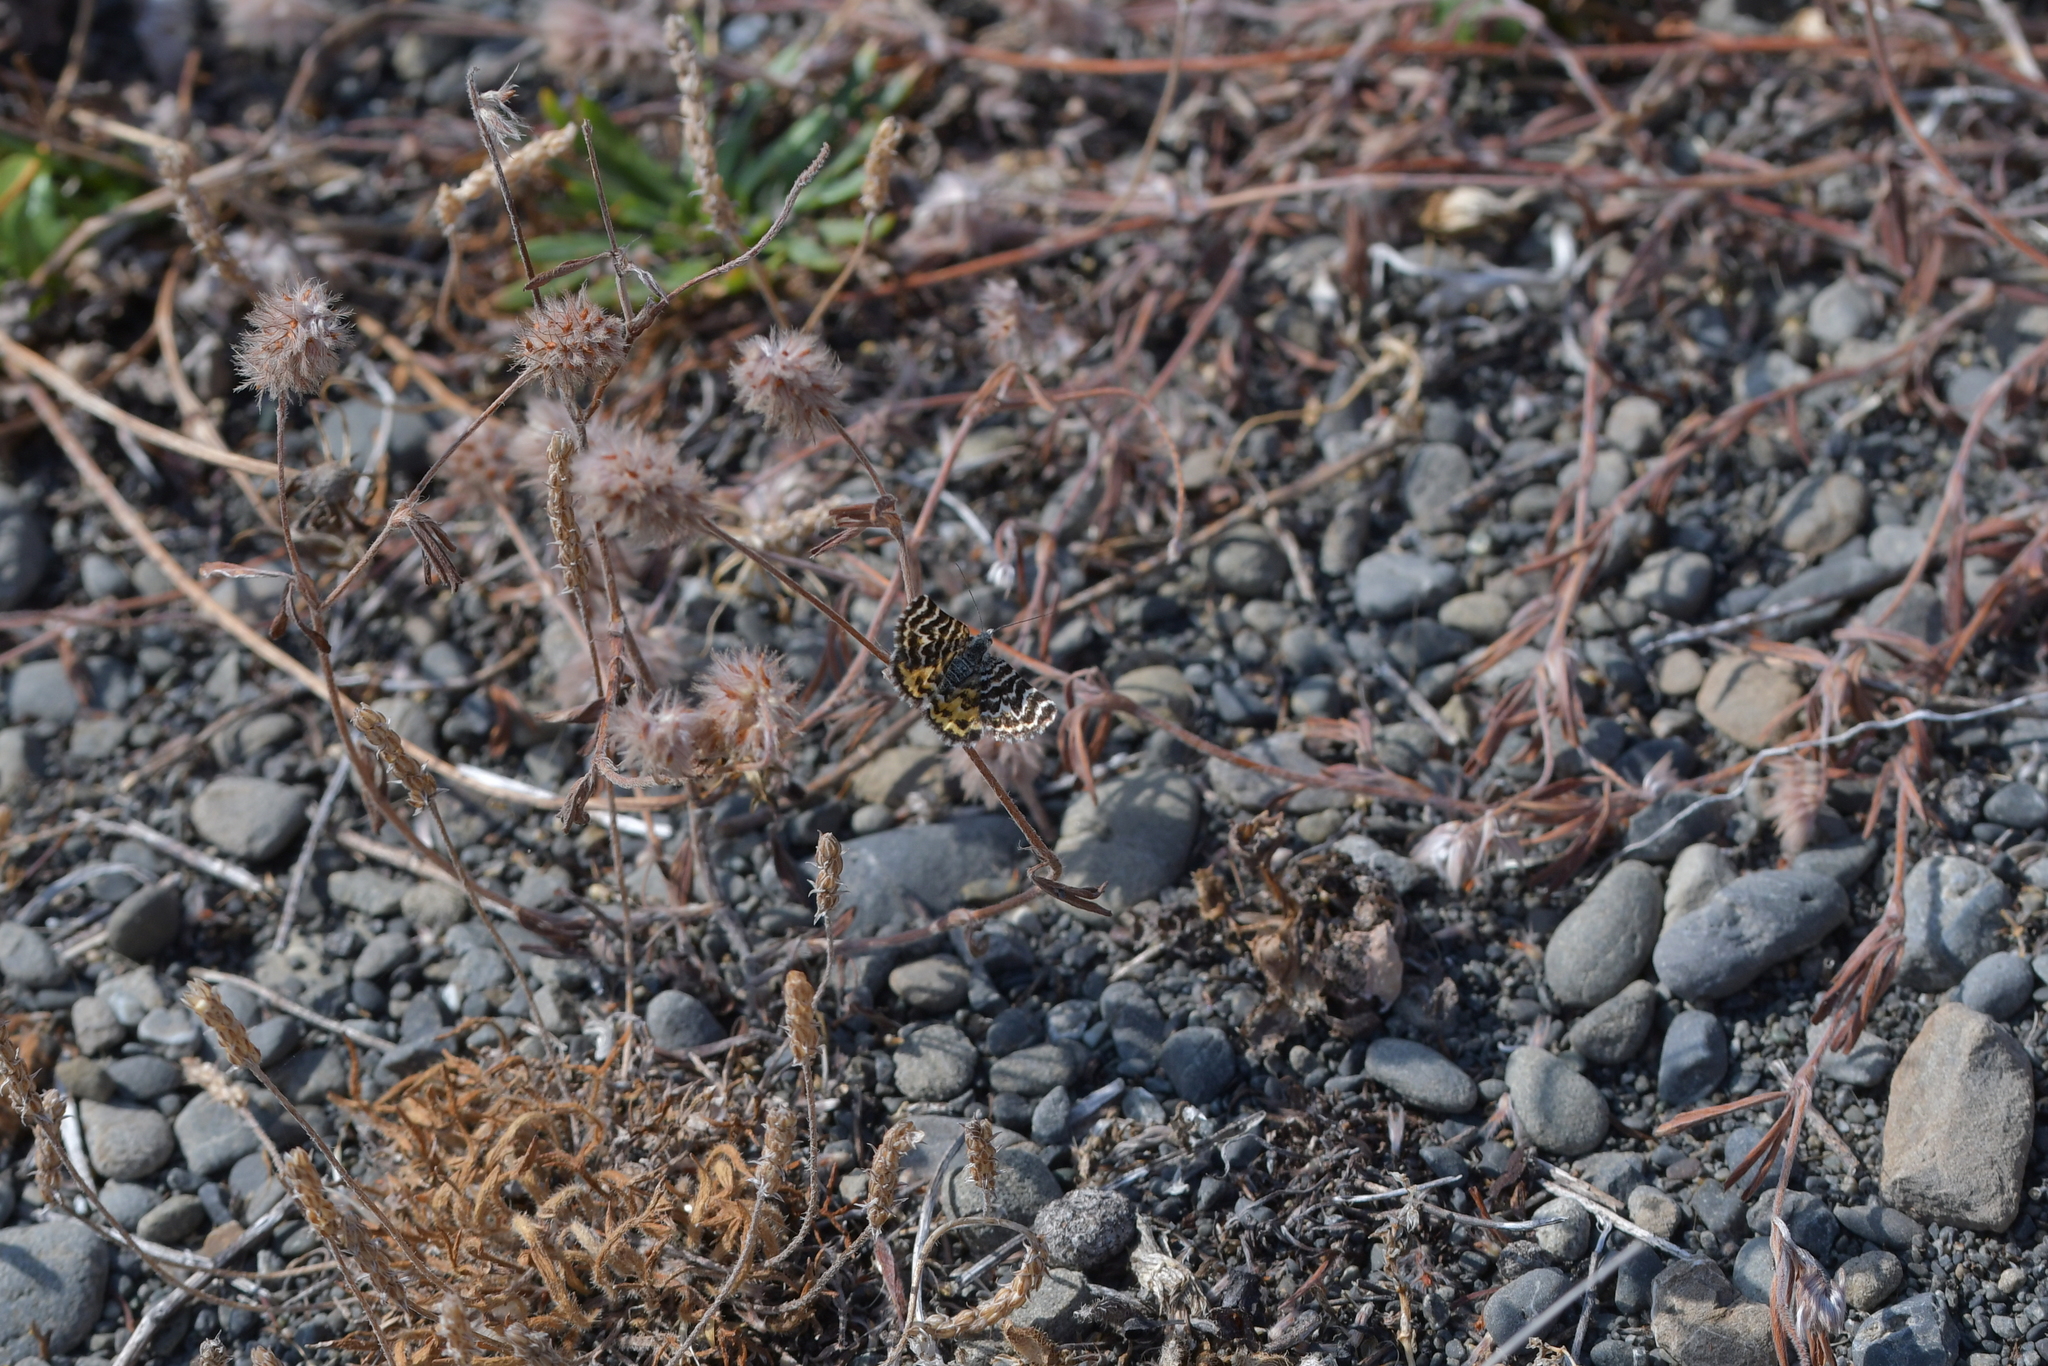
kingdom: Animalia
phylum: Arthropoda
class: Insecta
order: Lepidoptera
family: Geometridae
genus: Notoreas
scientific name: Notoreas perornata
